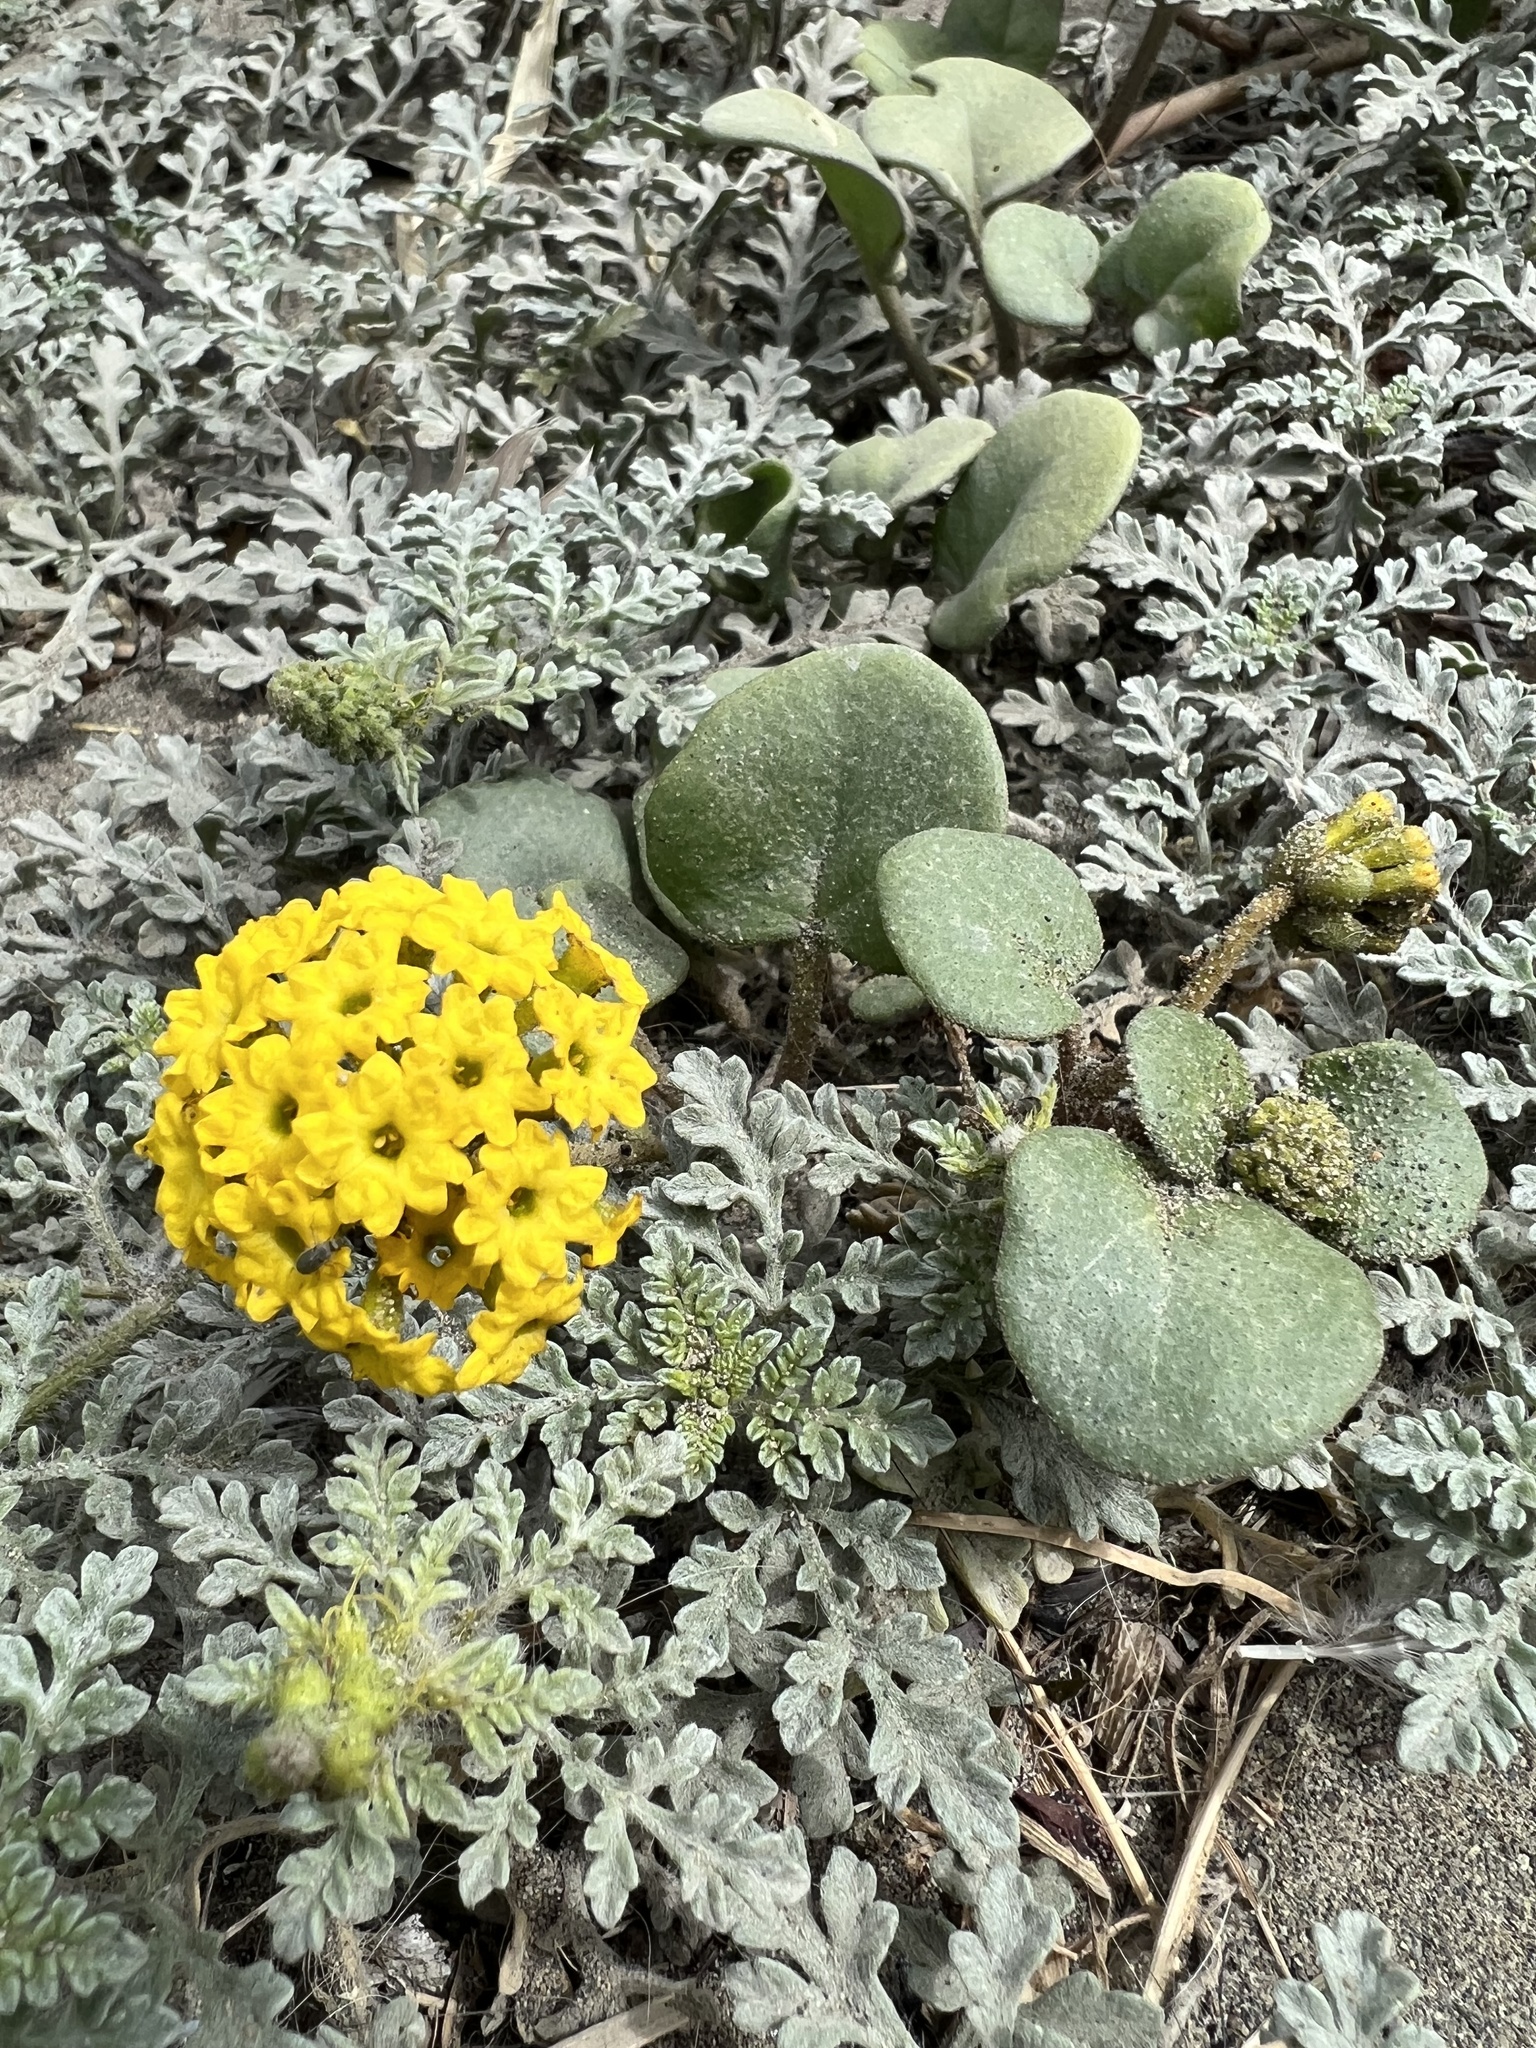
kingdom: Plantae
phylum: Tracheophyta
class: Magnoliopsida
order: Caryophyllales
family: Nyctaginaceae
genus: Abronia
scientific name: Abronia latifolia
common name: Yellow sand-verbena
